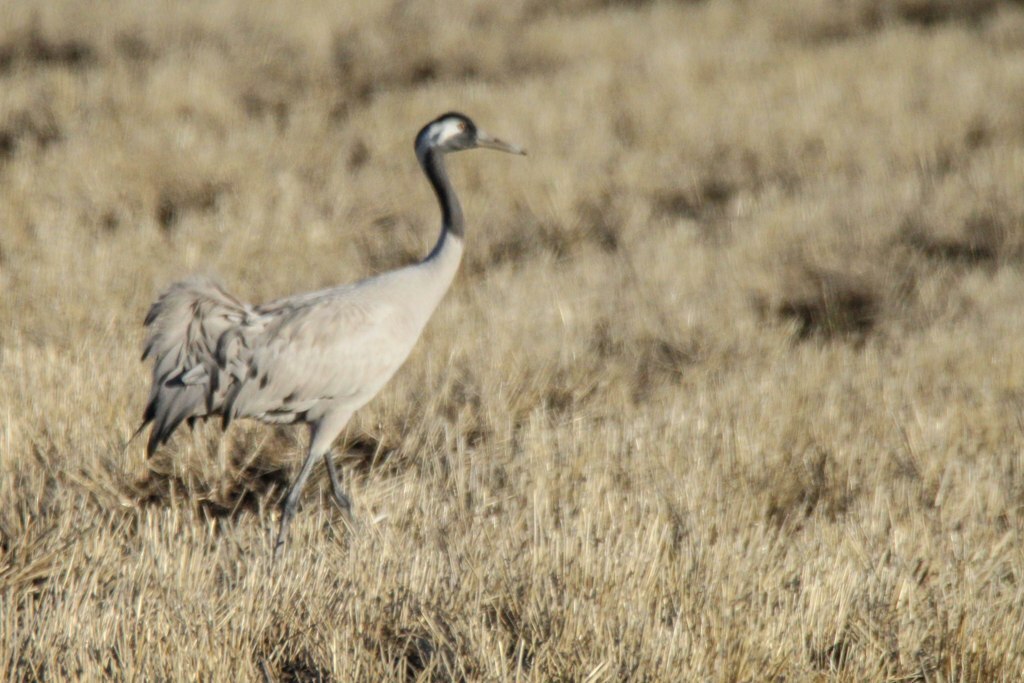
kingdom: Animalia
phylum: Chordata
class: Aves
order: Gruiformes
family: Gruidae
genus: Grus
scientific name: Grus grus
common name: Common crane
